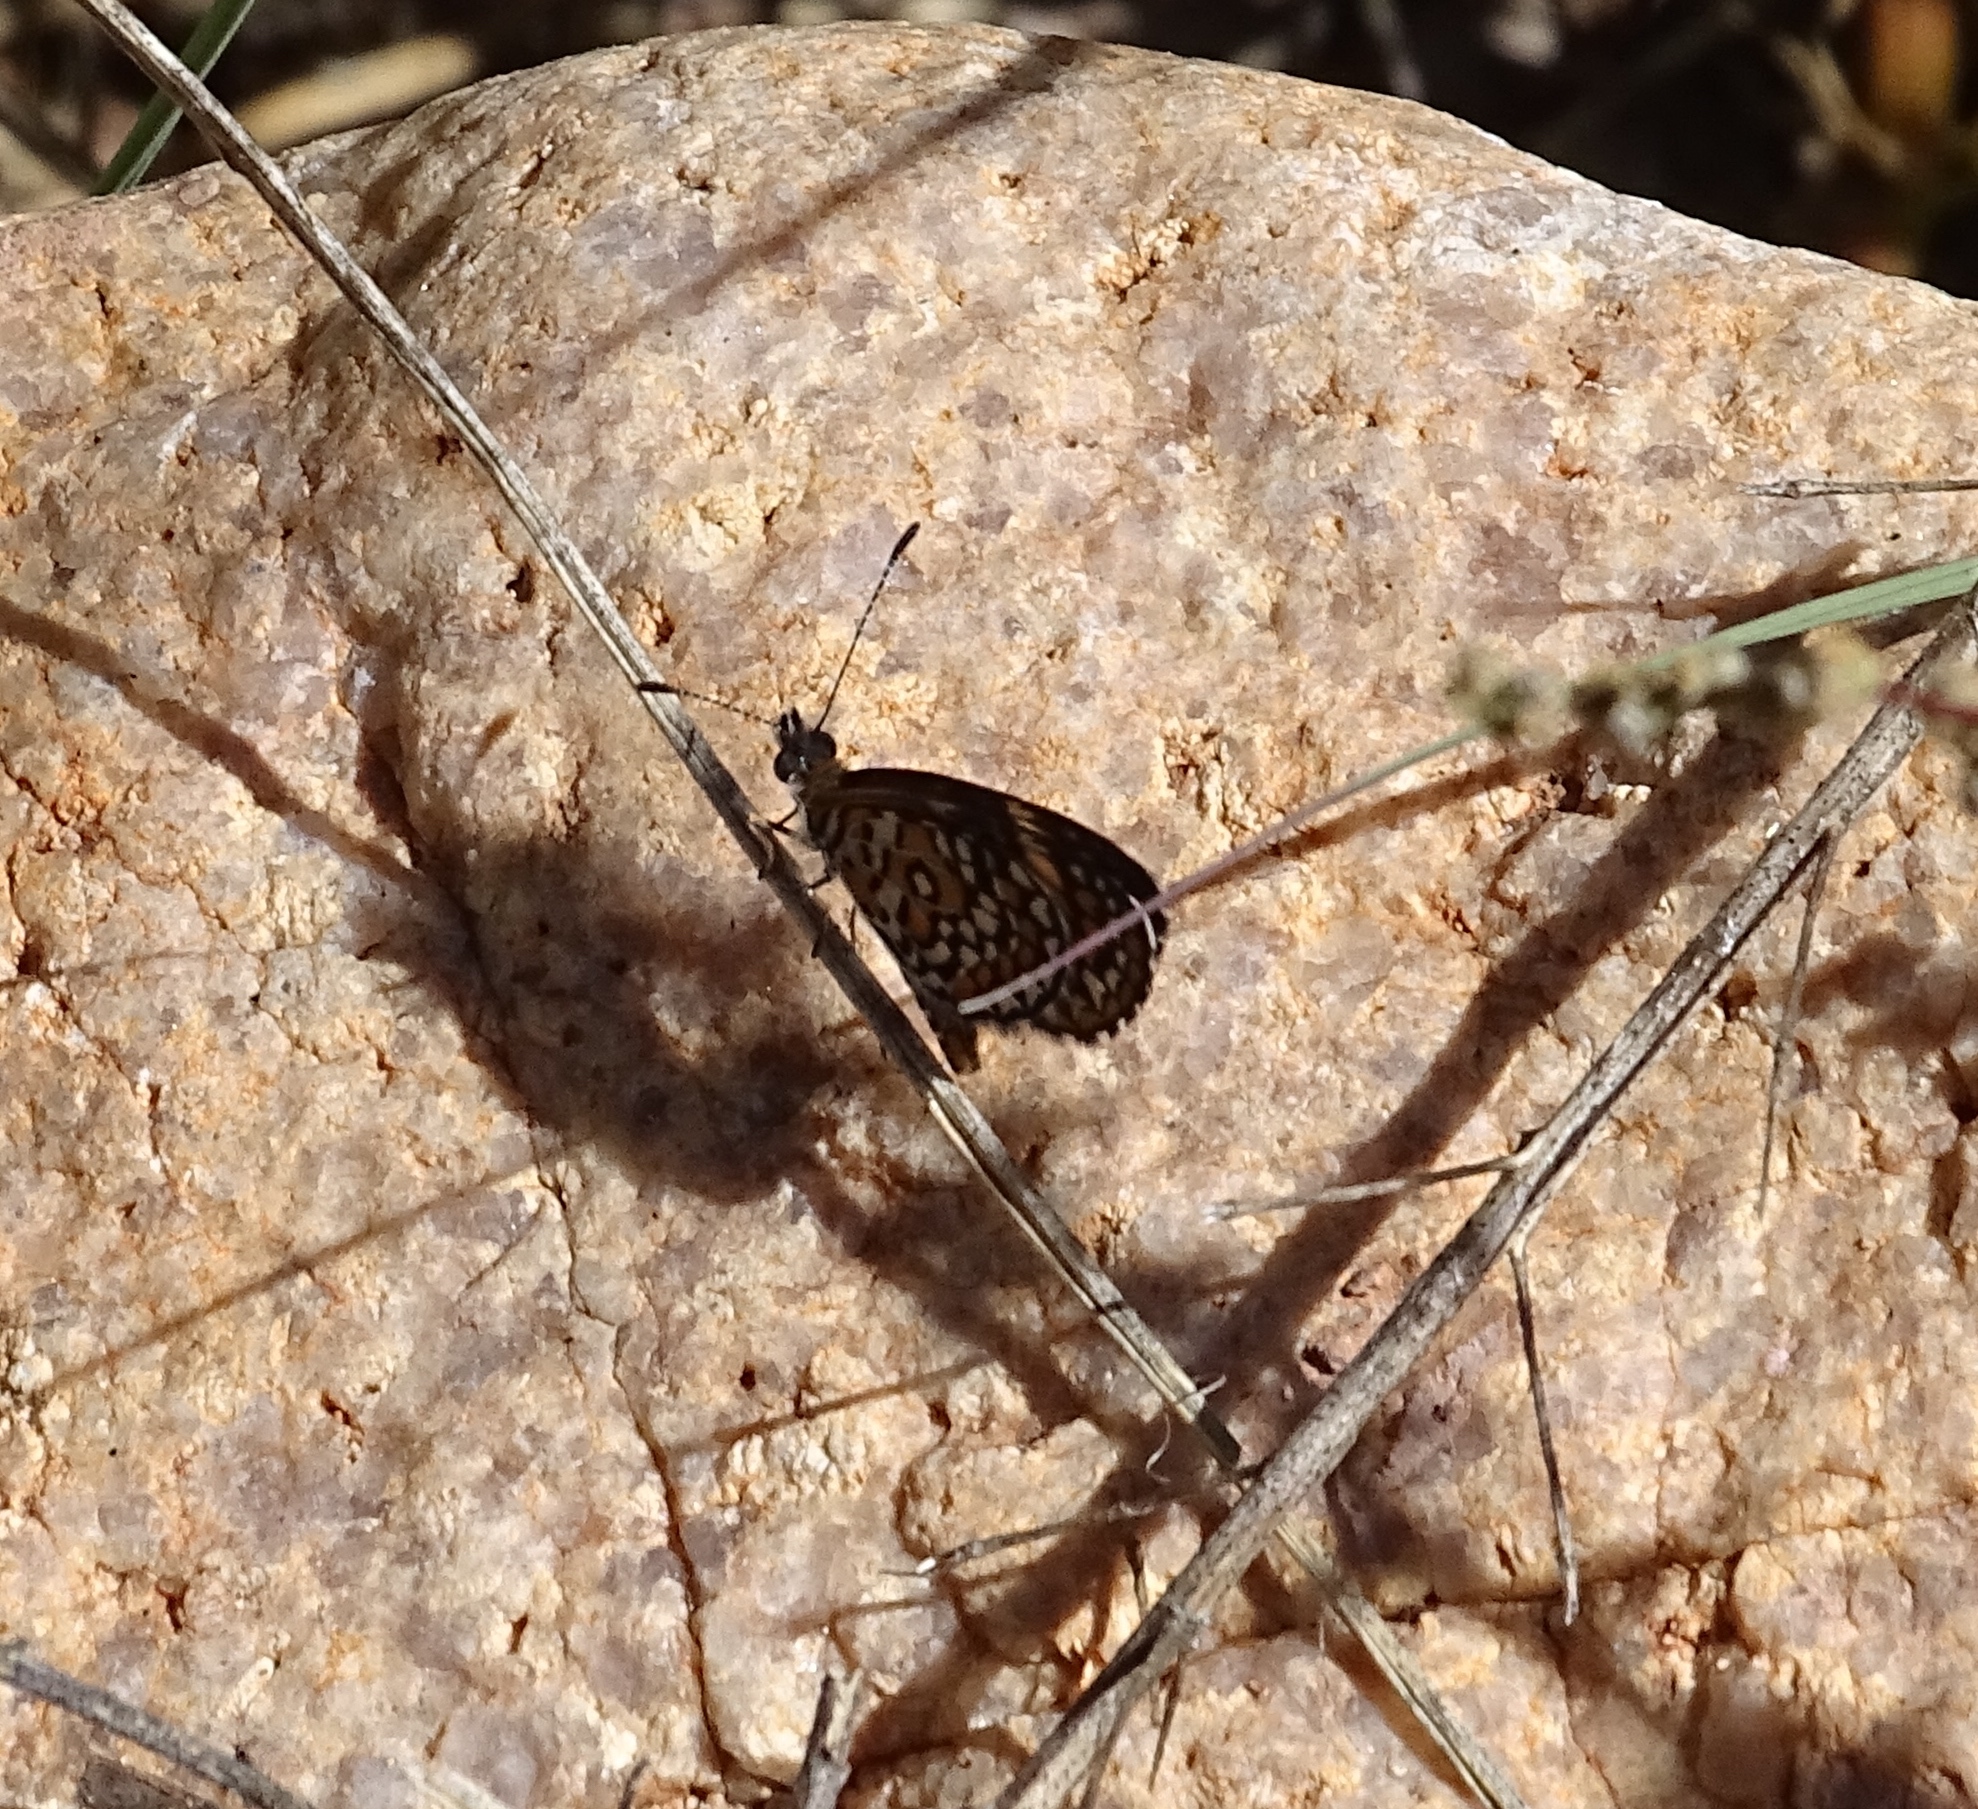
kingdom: Animalia
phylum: Arthropoda
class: Insecta
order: Lepidoptera
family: Nymphalidae
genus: Dymasia
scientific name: Dymasia dymas
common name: Tiny checkerspot
